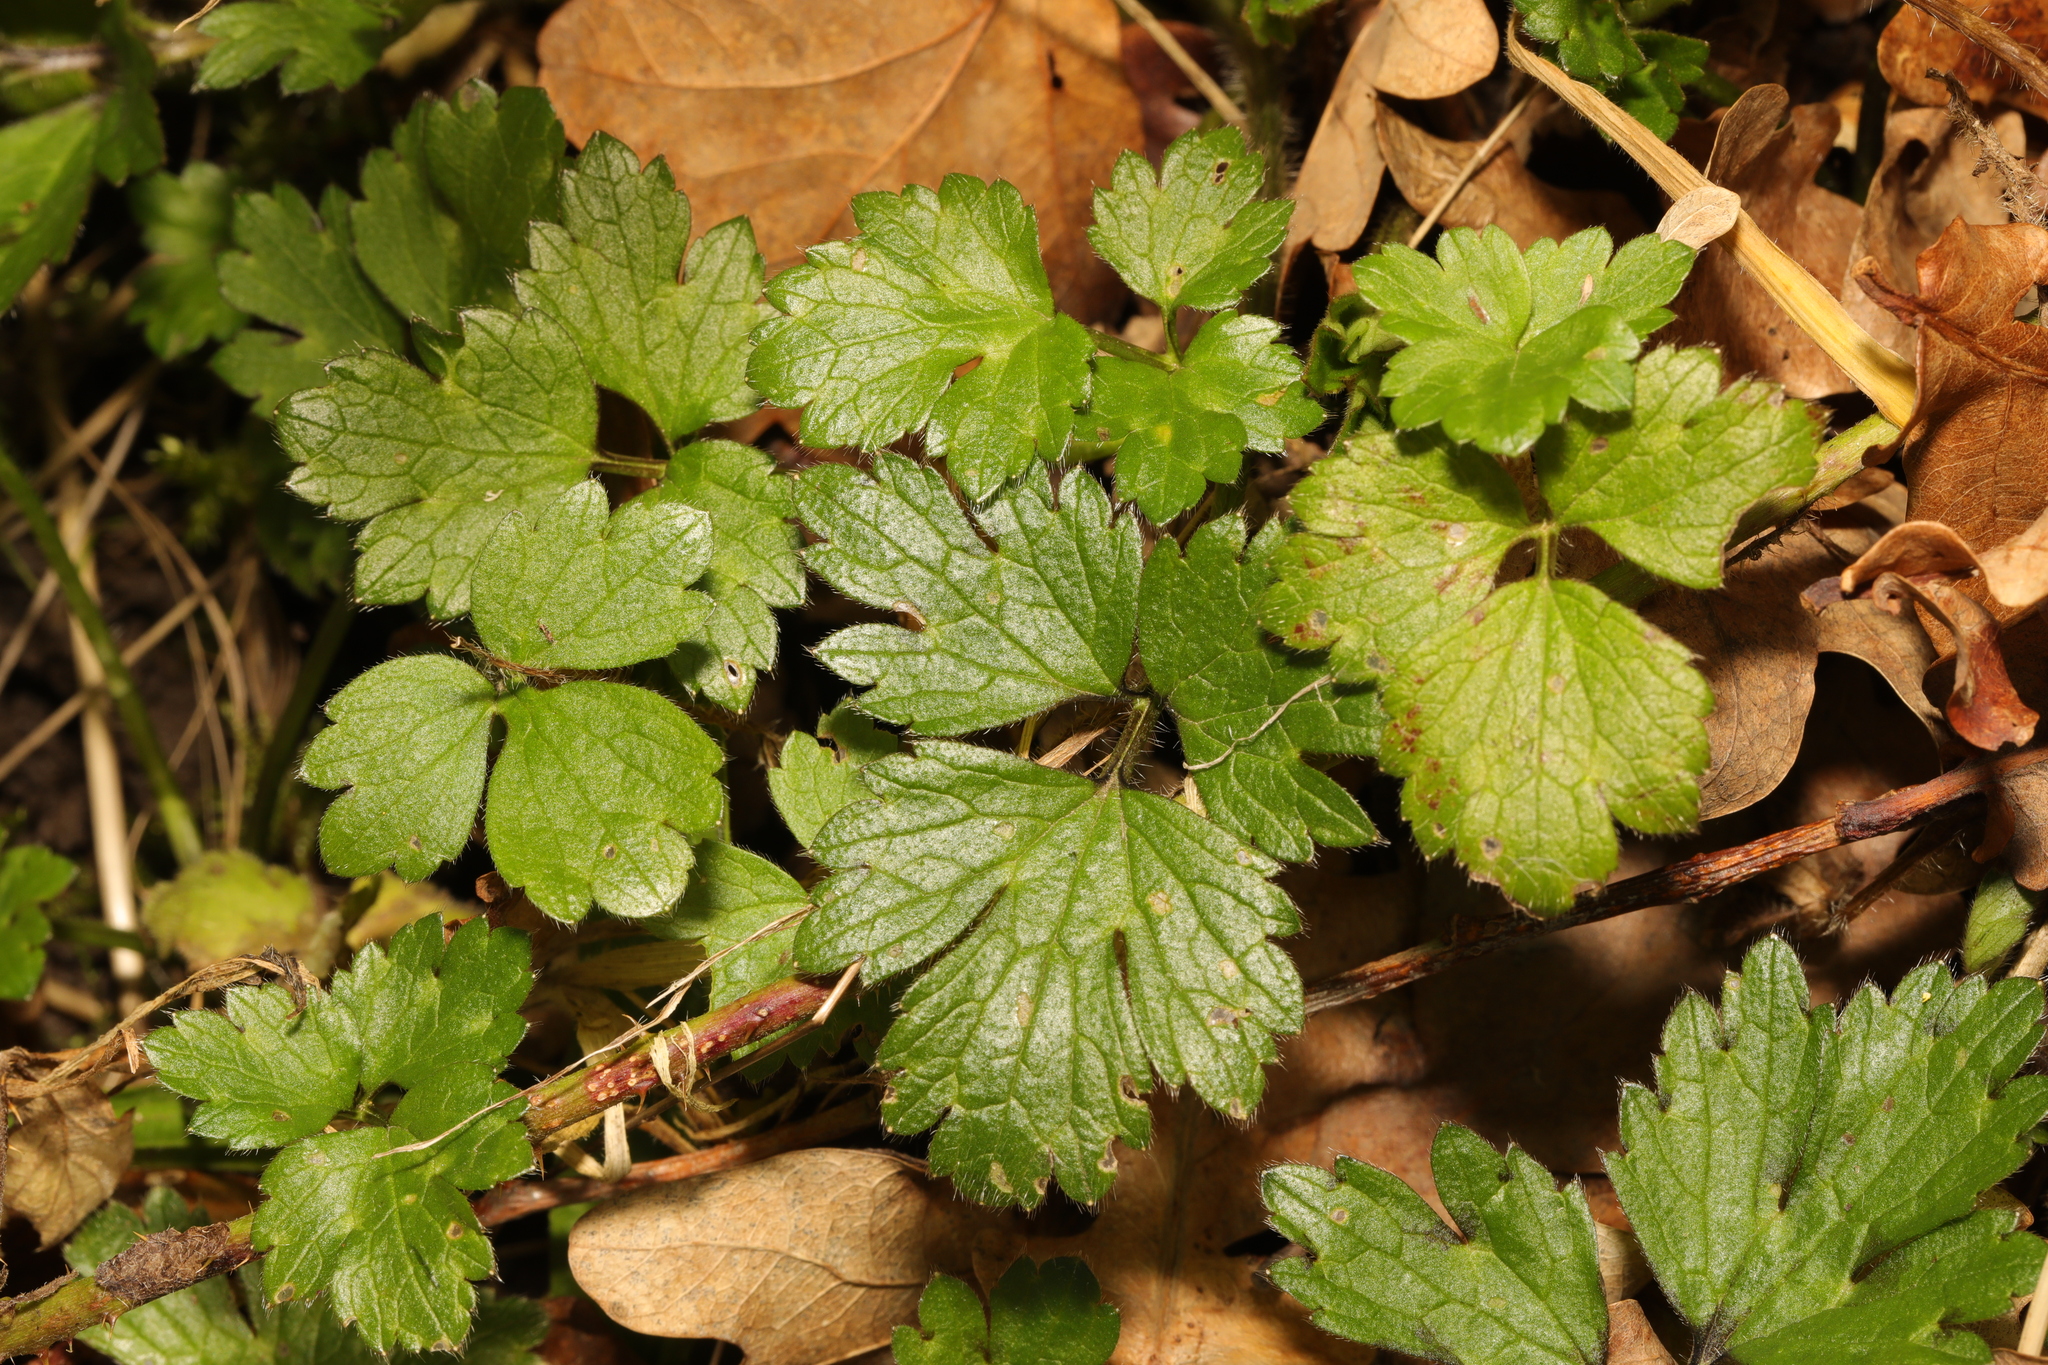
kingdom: Plantae
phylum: Tracheophyta
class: Magnoliopsida
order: Ranunculales
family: Ranunculaceae
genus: Ranunculus
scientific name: Ranunculus repens
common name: Creeping buttercup
